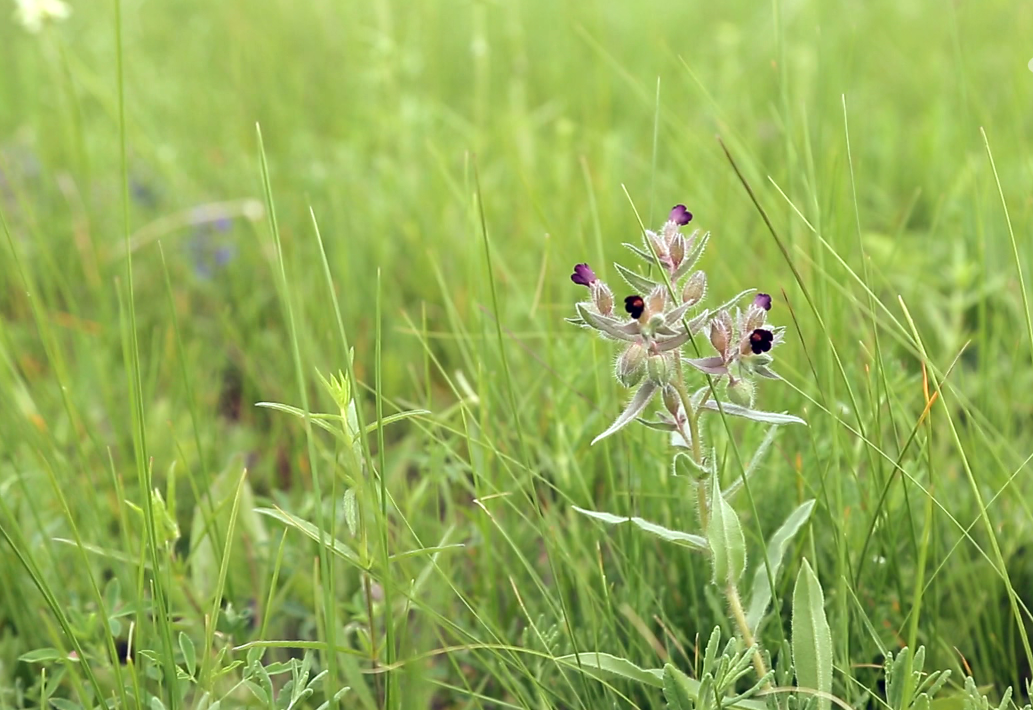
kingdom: Plantae
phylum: Tracheophyta
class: Magnoliopsida
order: Boraginales
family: Boraginaceae
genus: Nonea
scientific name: Nonea pulla
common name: Brown nonea
